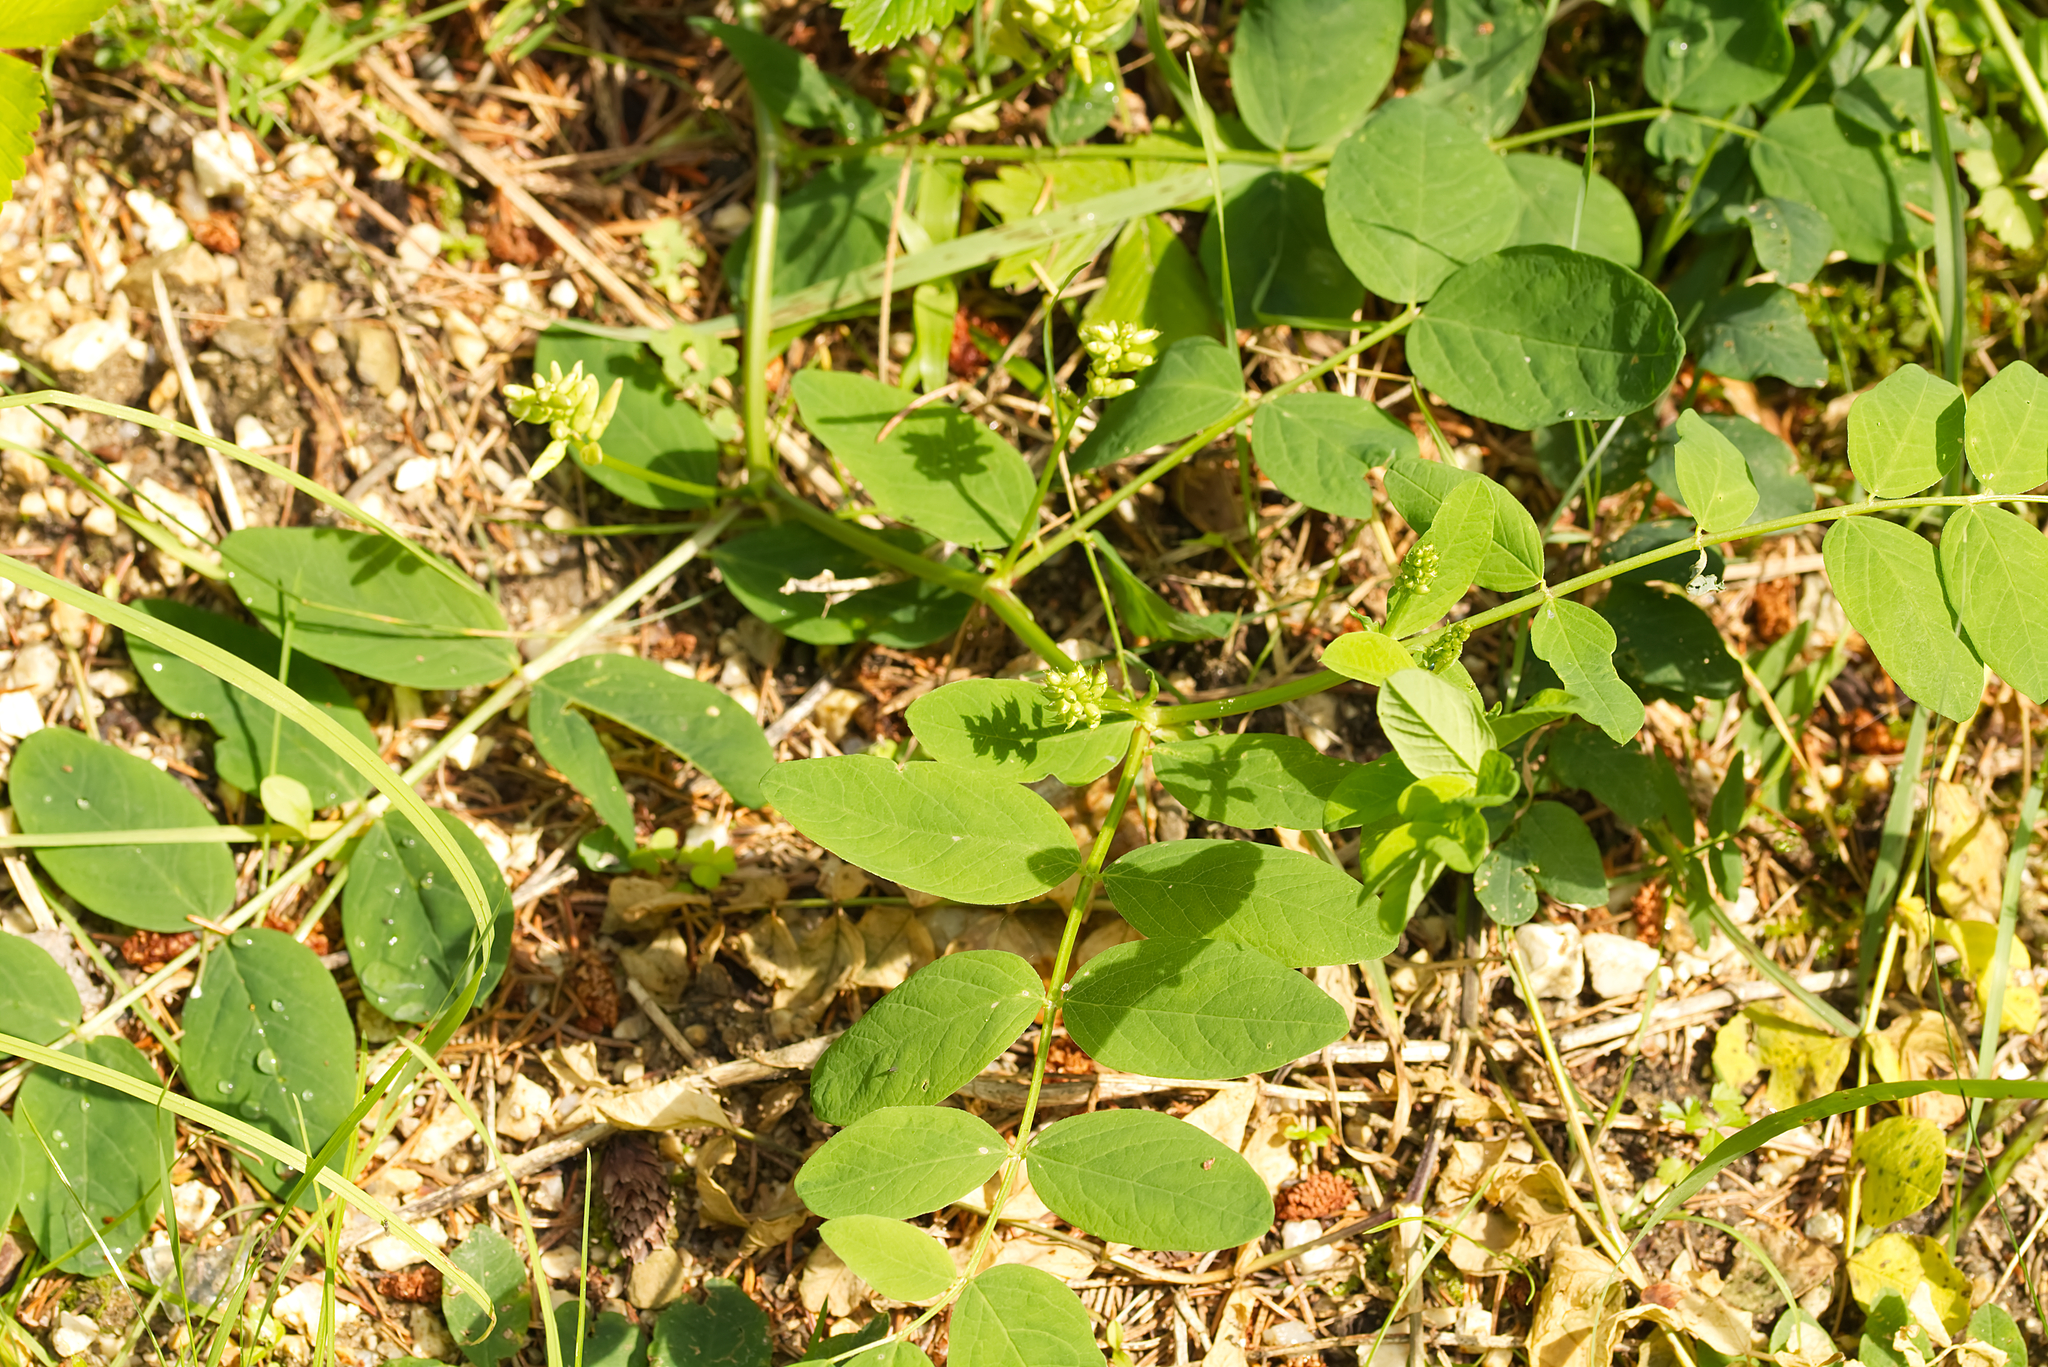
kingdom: Plantae
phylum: Tracheophyta
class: Magnoliopsida
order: Fabales
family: Fabaceae
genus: Astragalus
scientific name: Astragalus glycyphyllos
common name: Wild liquorice
